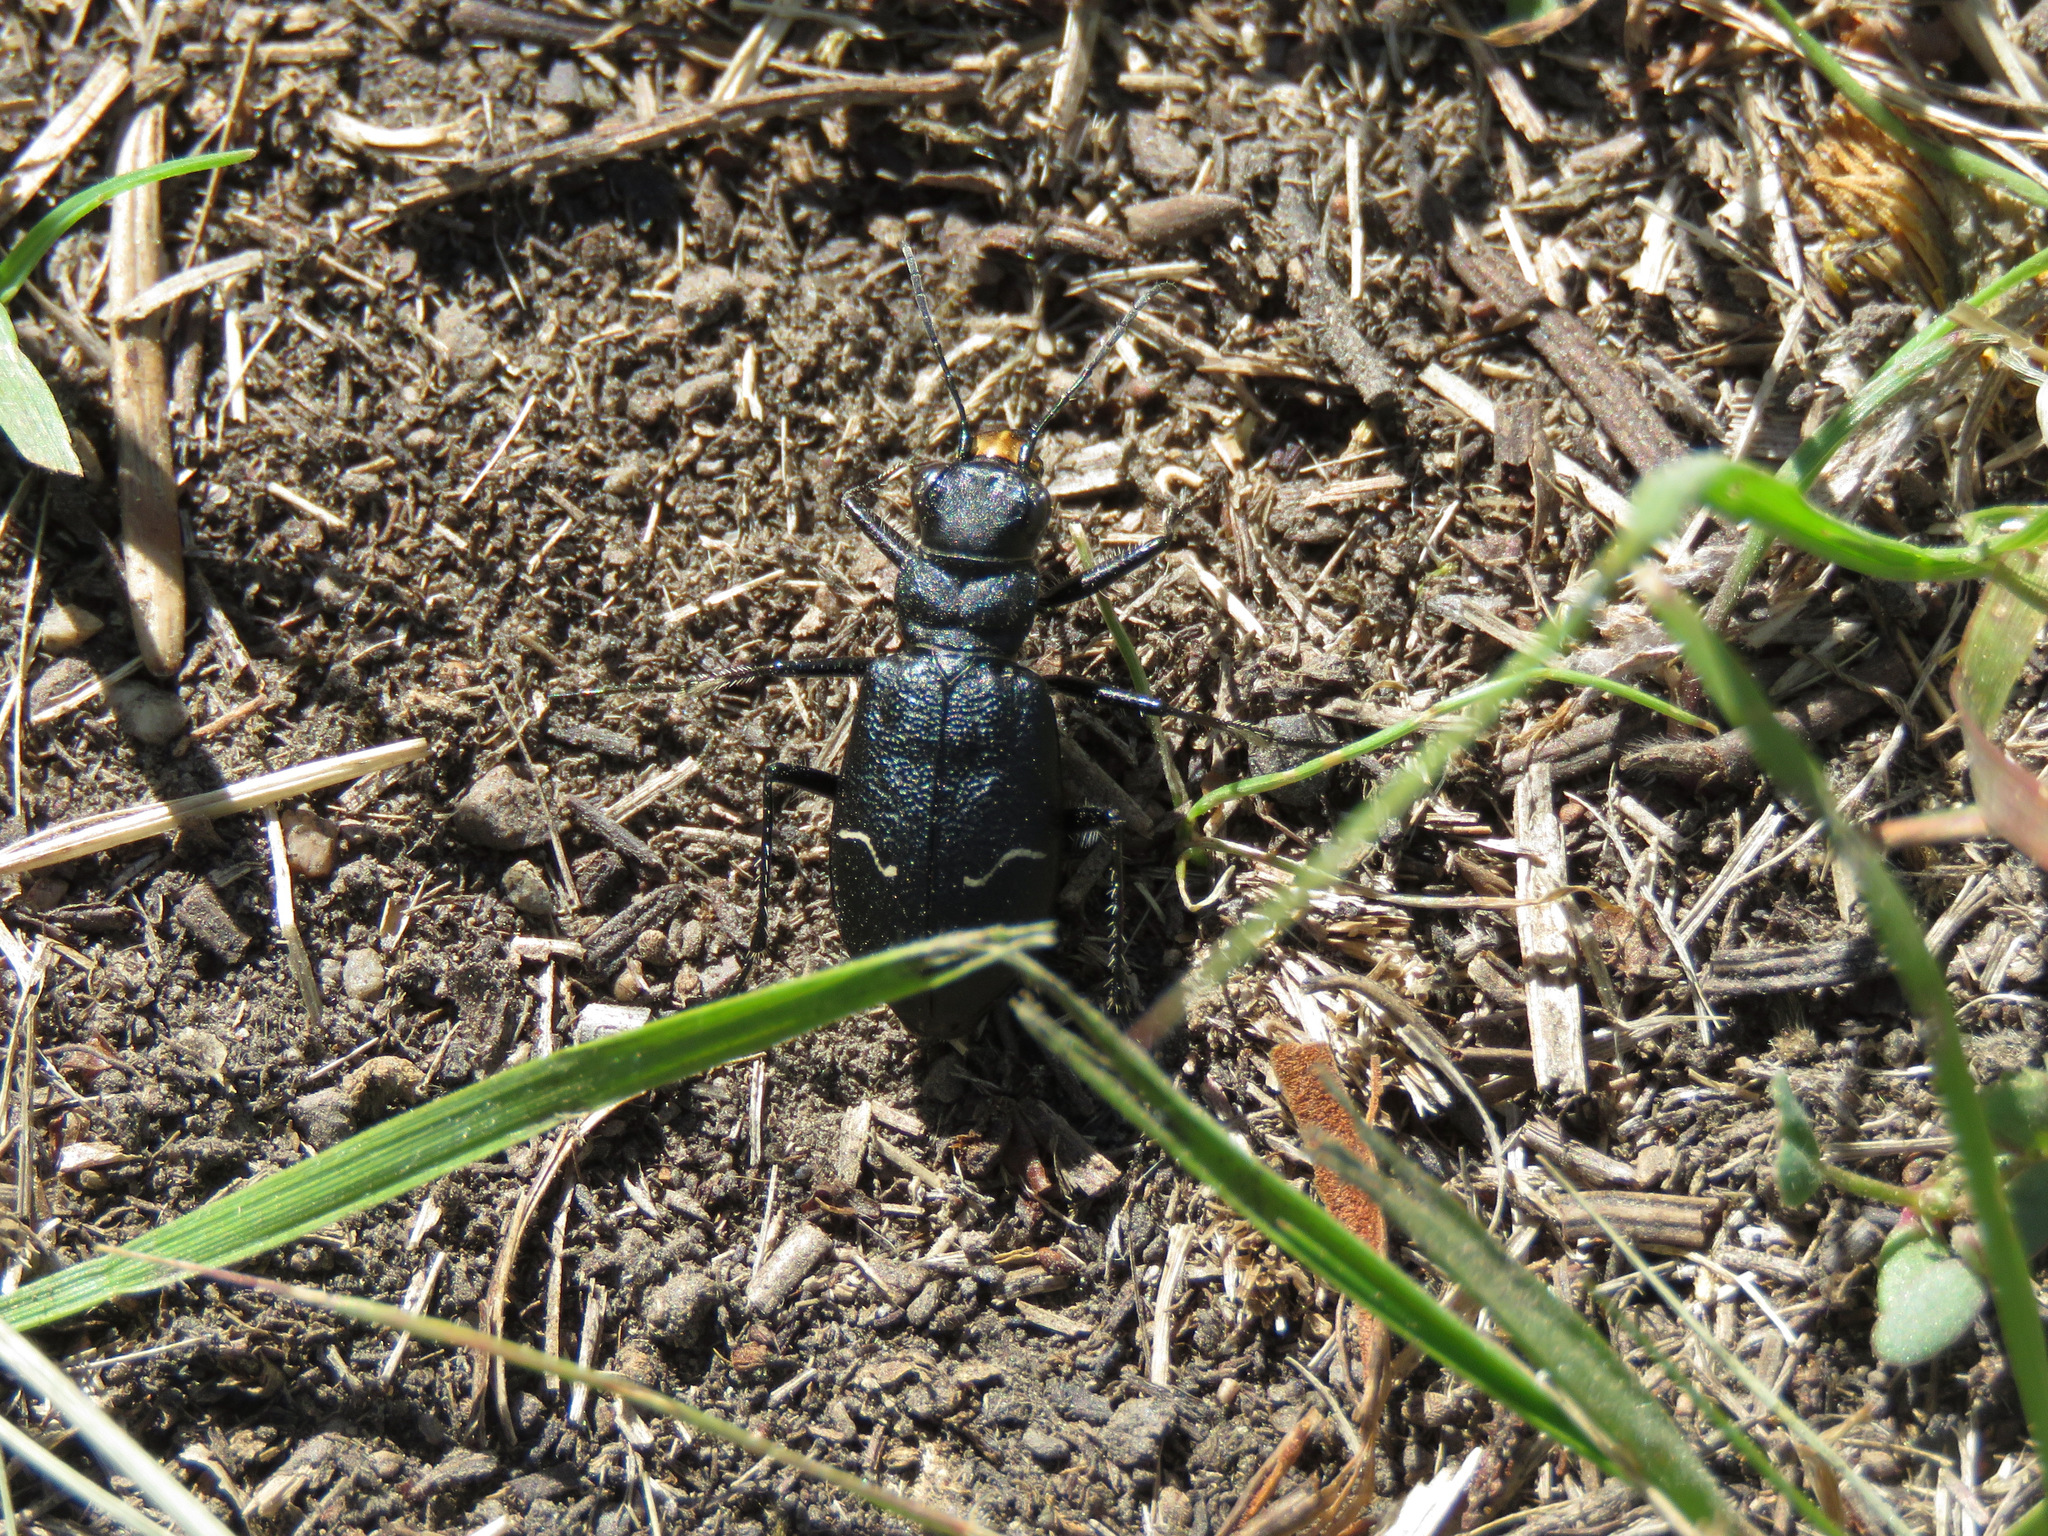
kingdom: Animalia
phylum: Arthropoda
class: Insecta
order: Coleoptera
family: Carabidae
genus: Cicindela
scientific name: Cicindela longilabris
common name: Boreal long-lipped tiger beetle
